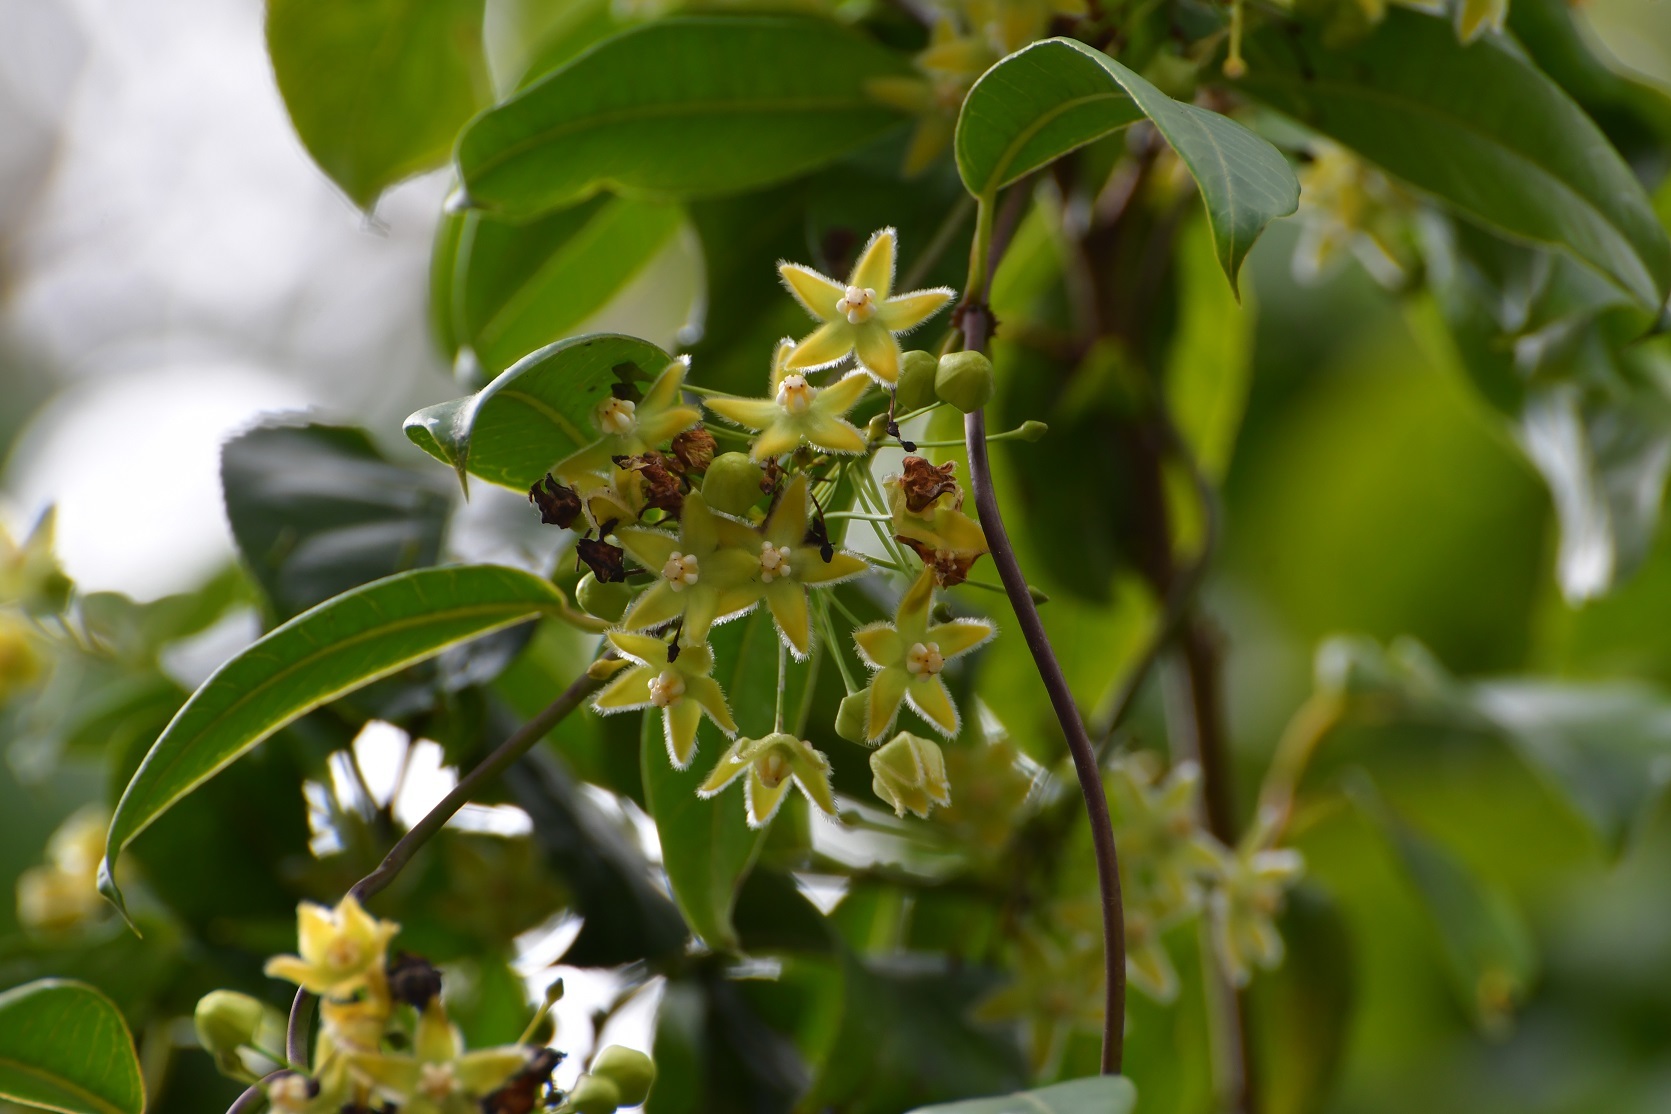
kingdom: Plantae
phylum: Tracheophyta
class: Magnoliopsida
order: Gentianales
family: Apocynaceae
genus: Vailia
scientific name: Vailia anomala
